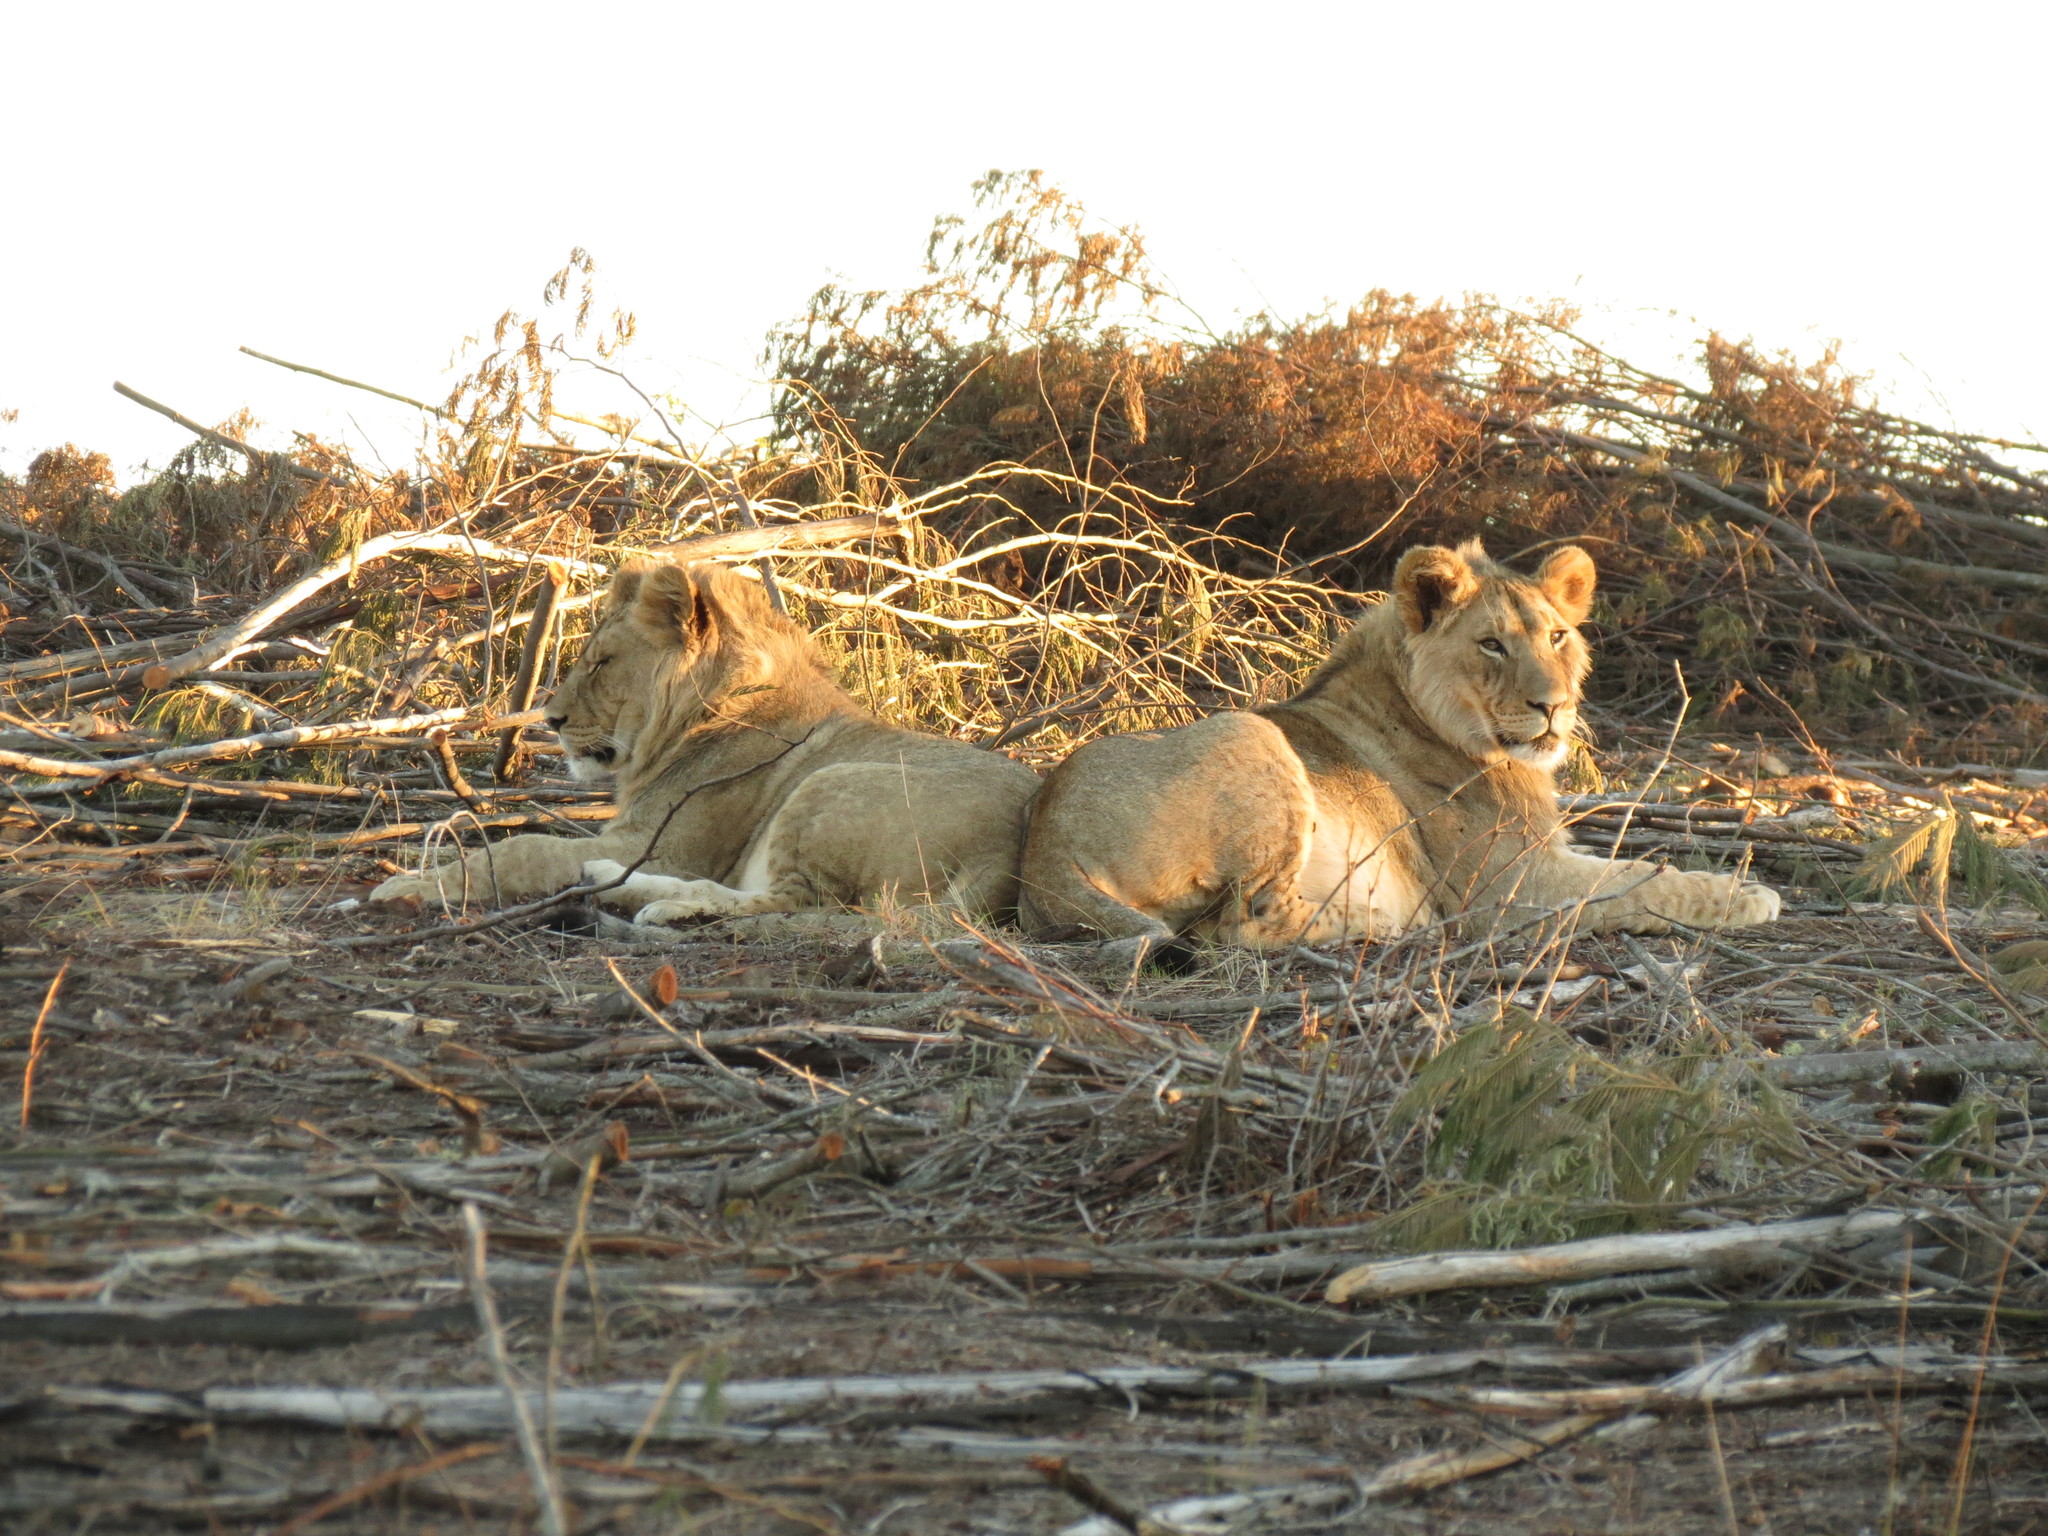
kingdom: Animalia
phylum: Chordata
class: Mammalia
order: Carnivora
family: Felidae
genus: Panthera
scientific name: Panthera leo
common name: Lion
